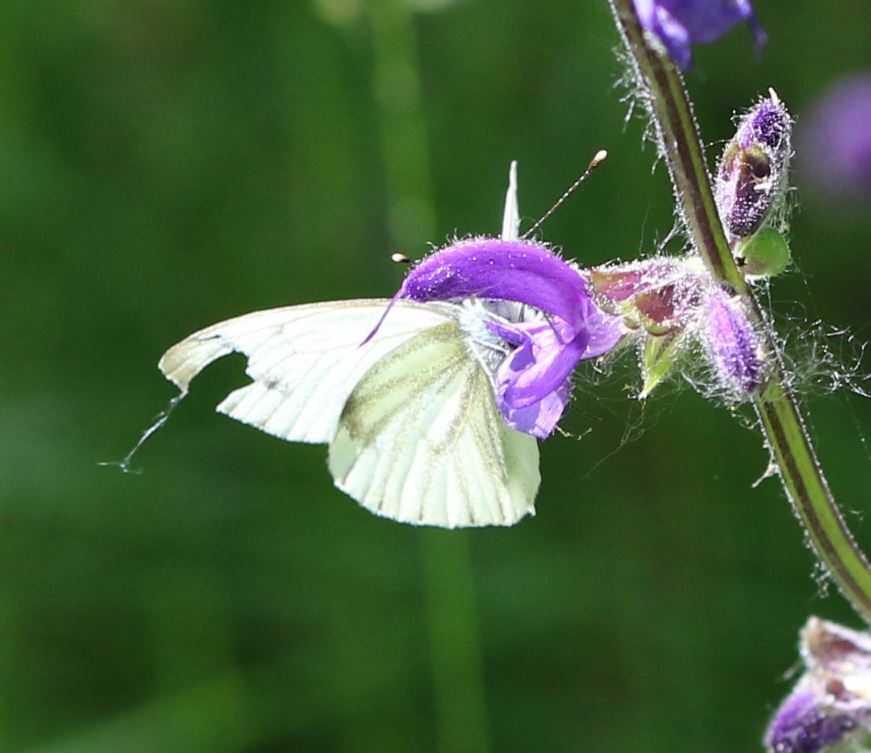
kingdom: Animalia
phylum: Arthropoda
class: Insecta
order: Lepidoptera
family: Pieridae
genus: Pieris
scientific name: Pieris napi
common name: Green-veined white
